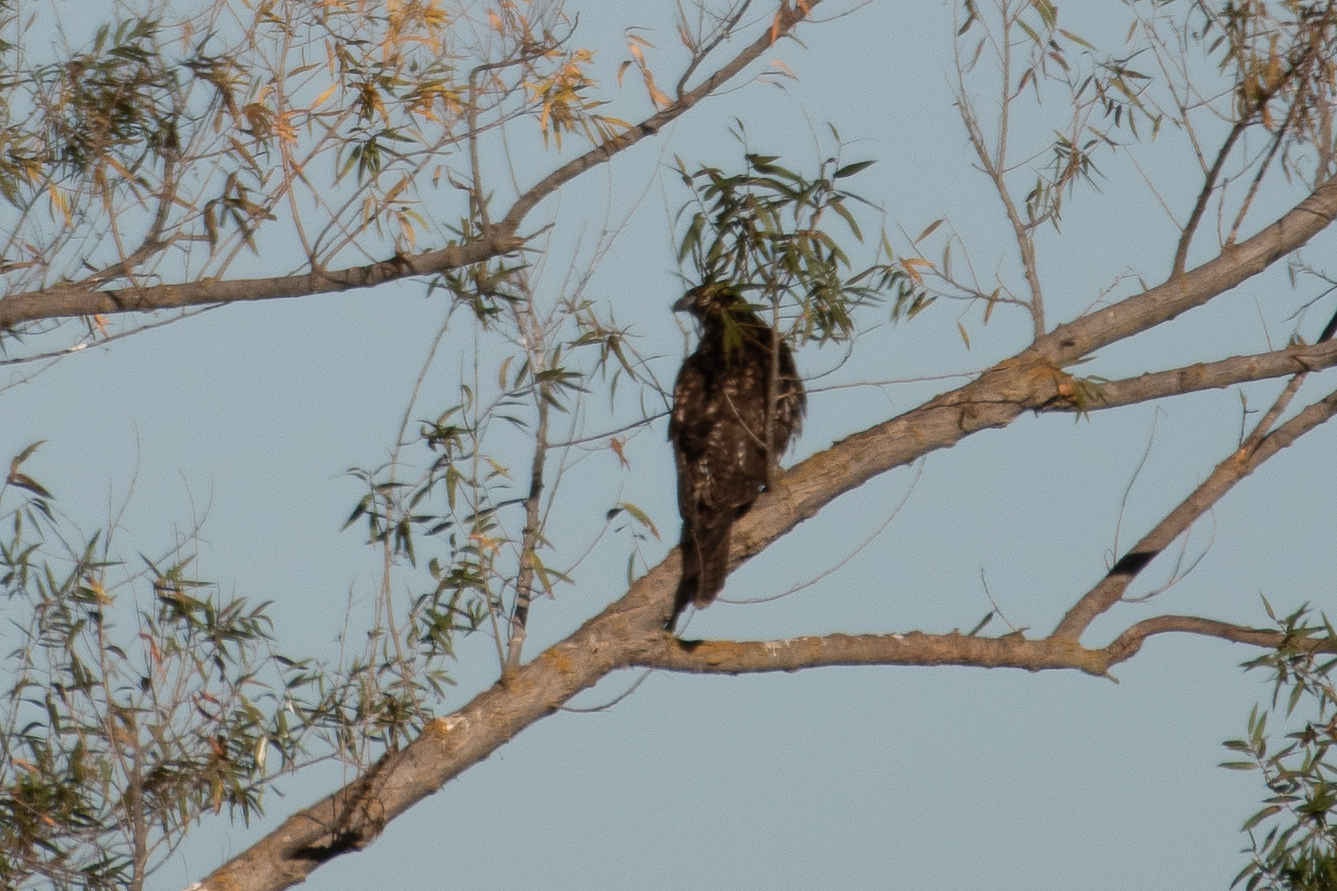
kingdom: Animalia
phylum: Chordata
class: Aves
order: Accipitriformes
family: Accipitridae
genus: Buteo
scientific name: Buteo jamaicensis
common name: Red-tailed hawk
